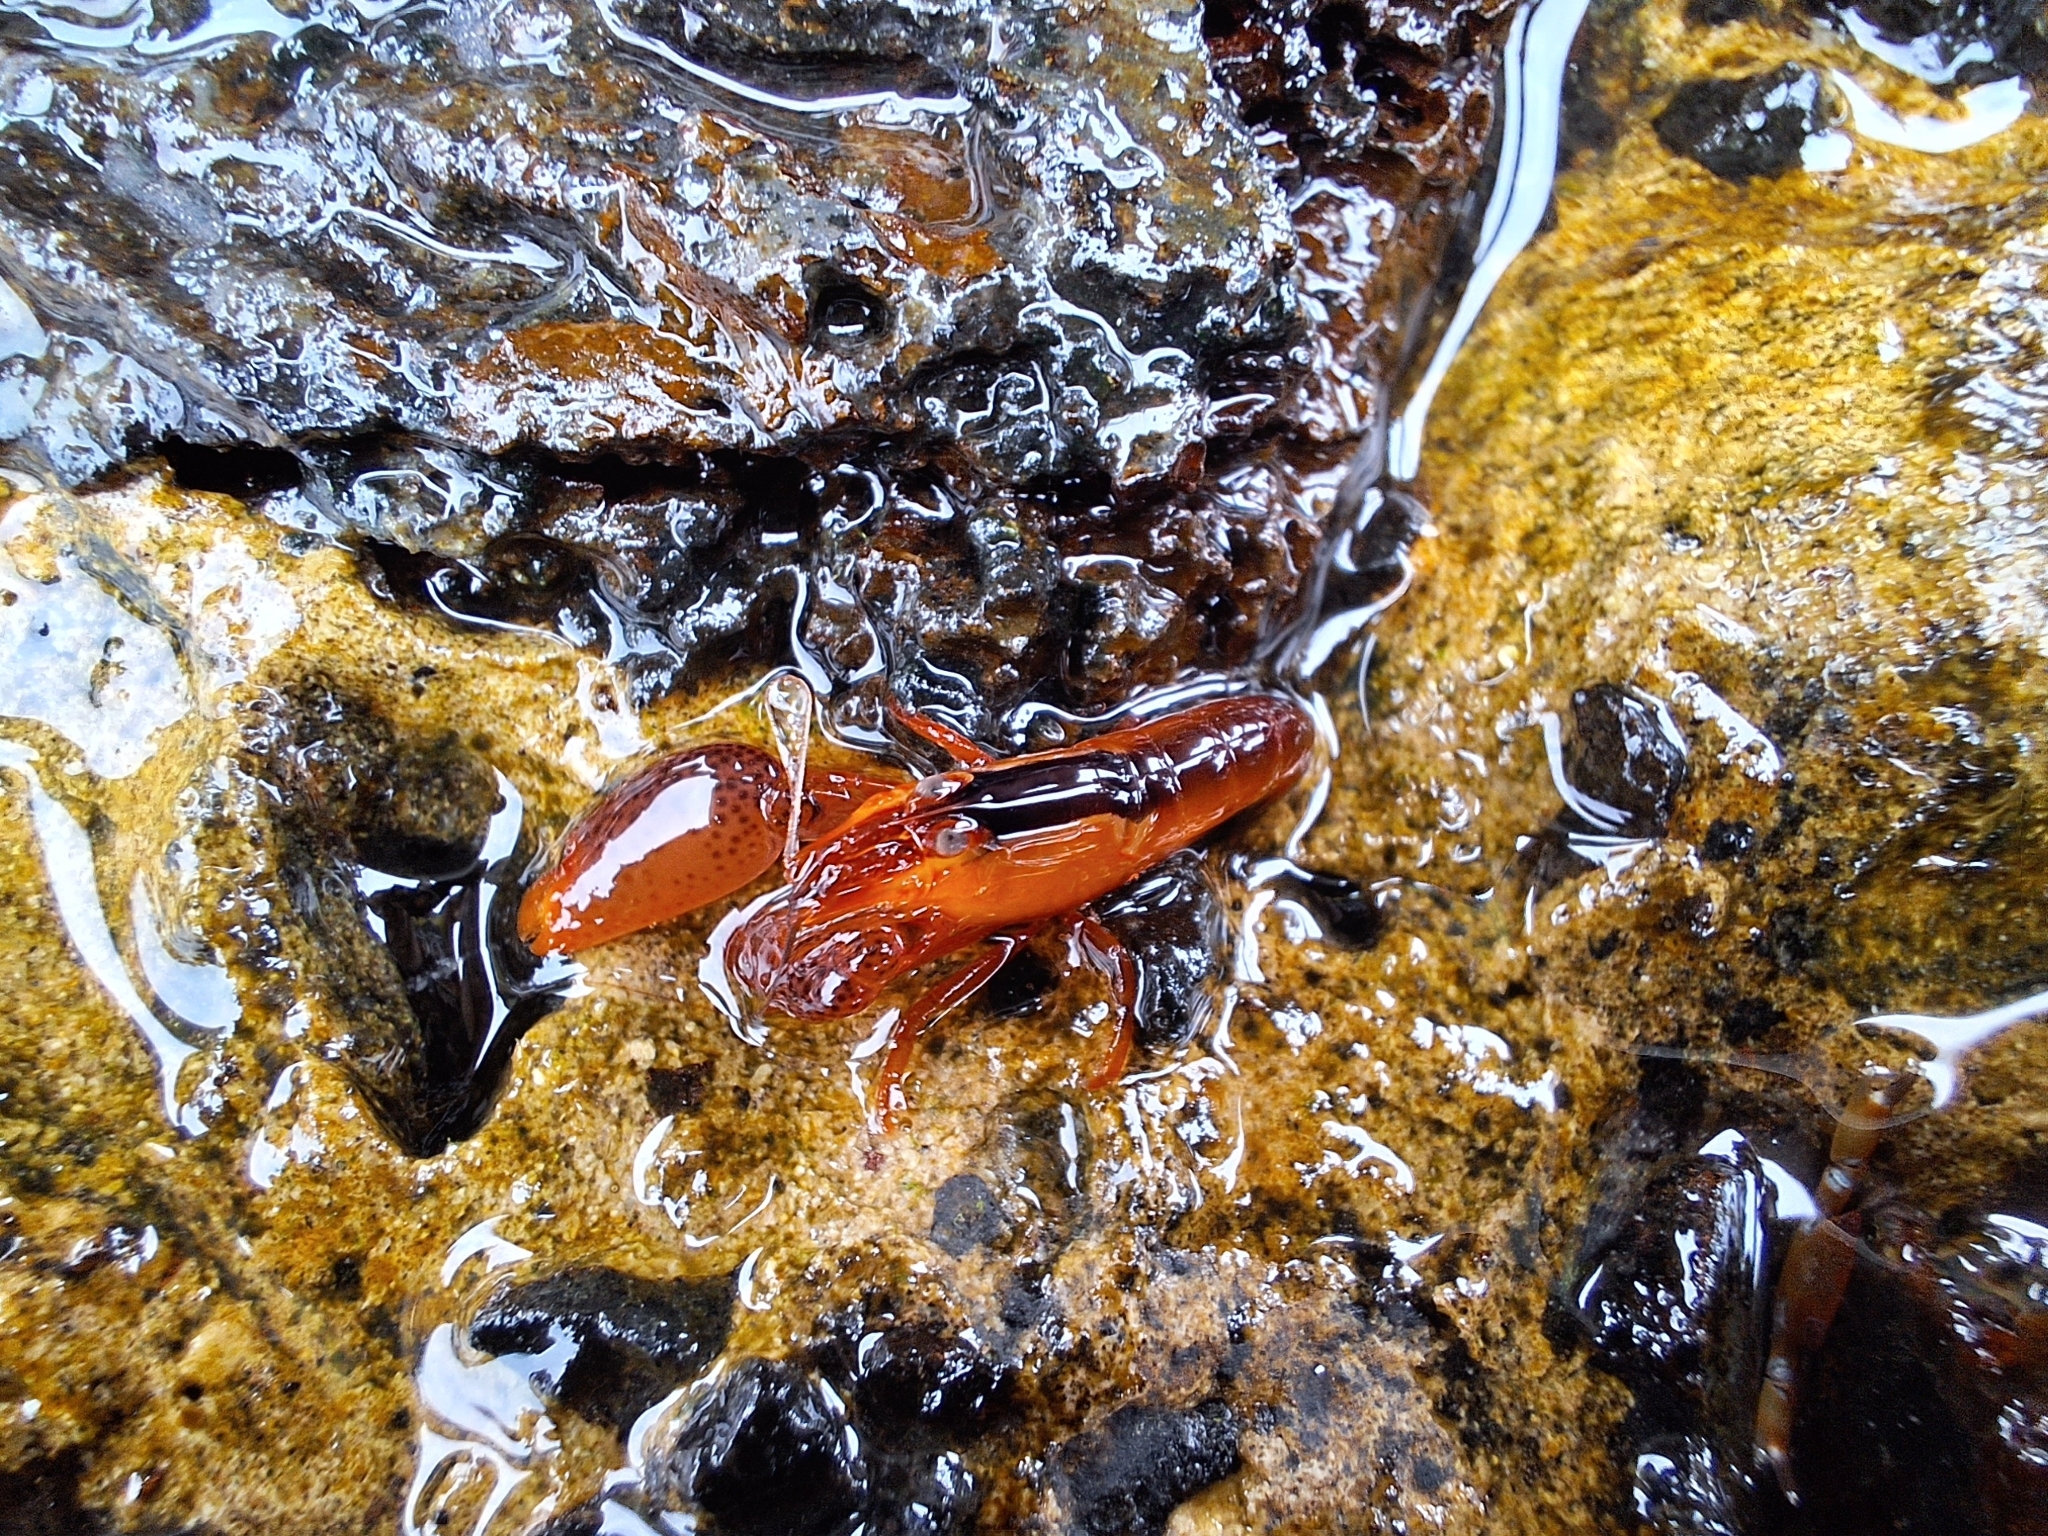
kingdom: Animalia
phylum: Arthropoda
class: Malacostraca
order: Decapoda
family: Alpheidae
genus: Alpheus
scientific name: Alpheus lottini
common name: Coral snapping shrimp
